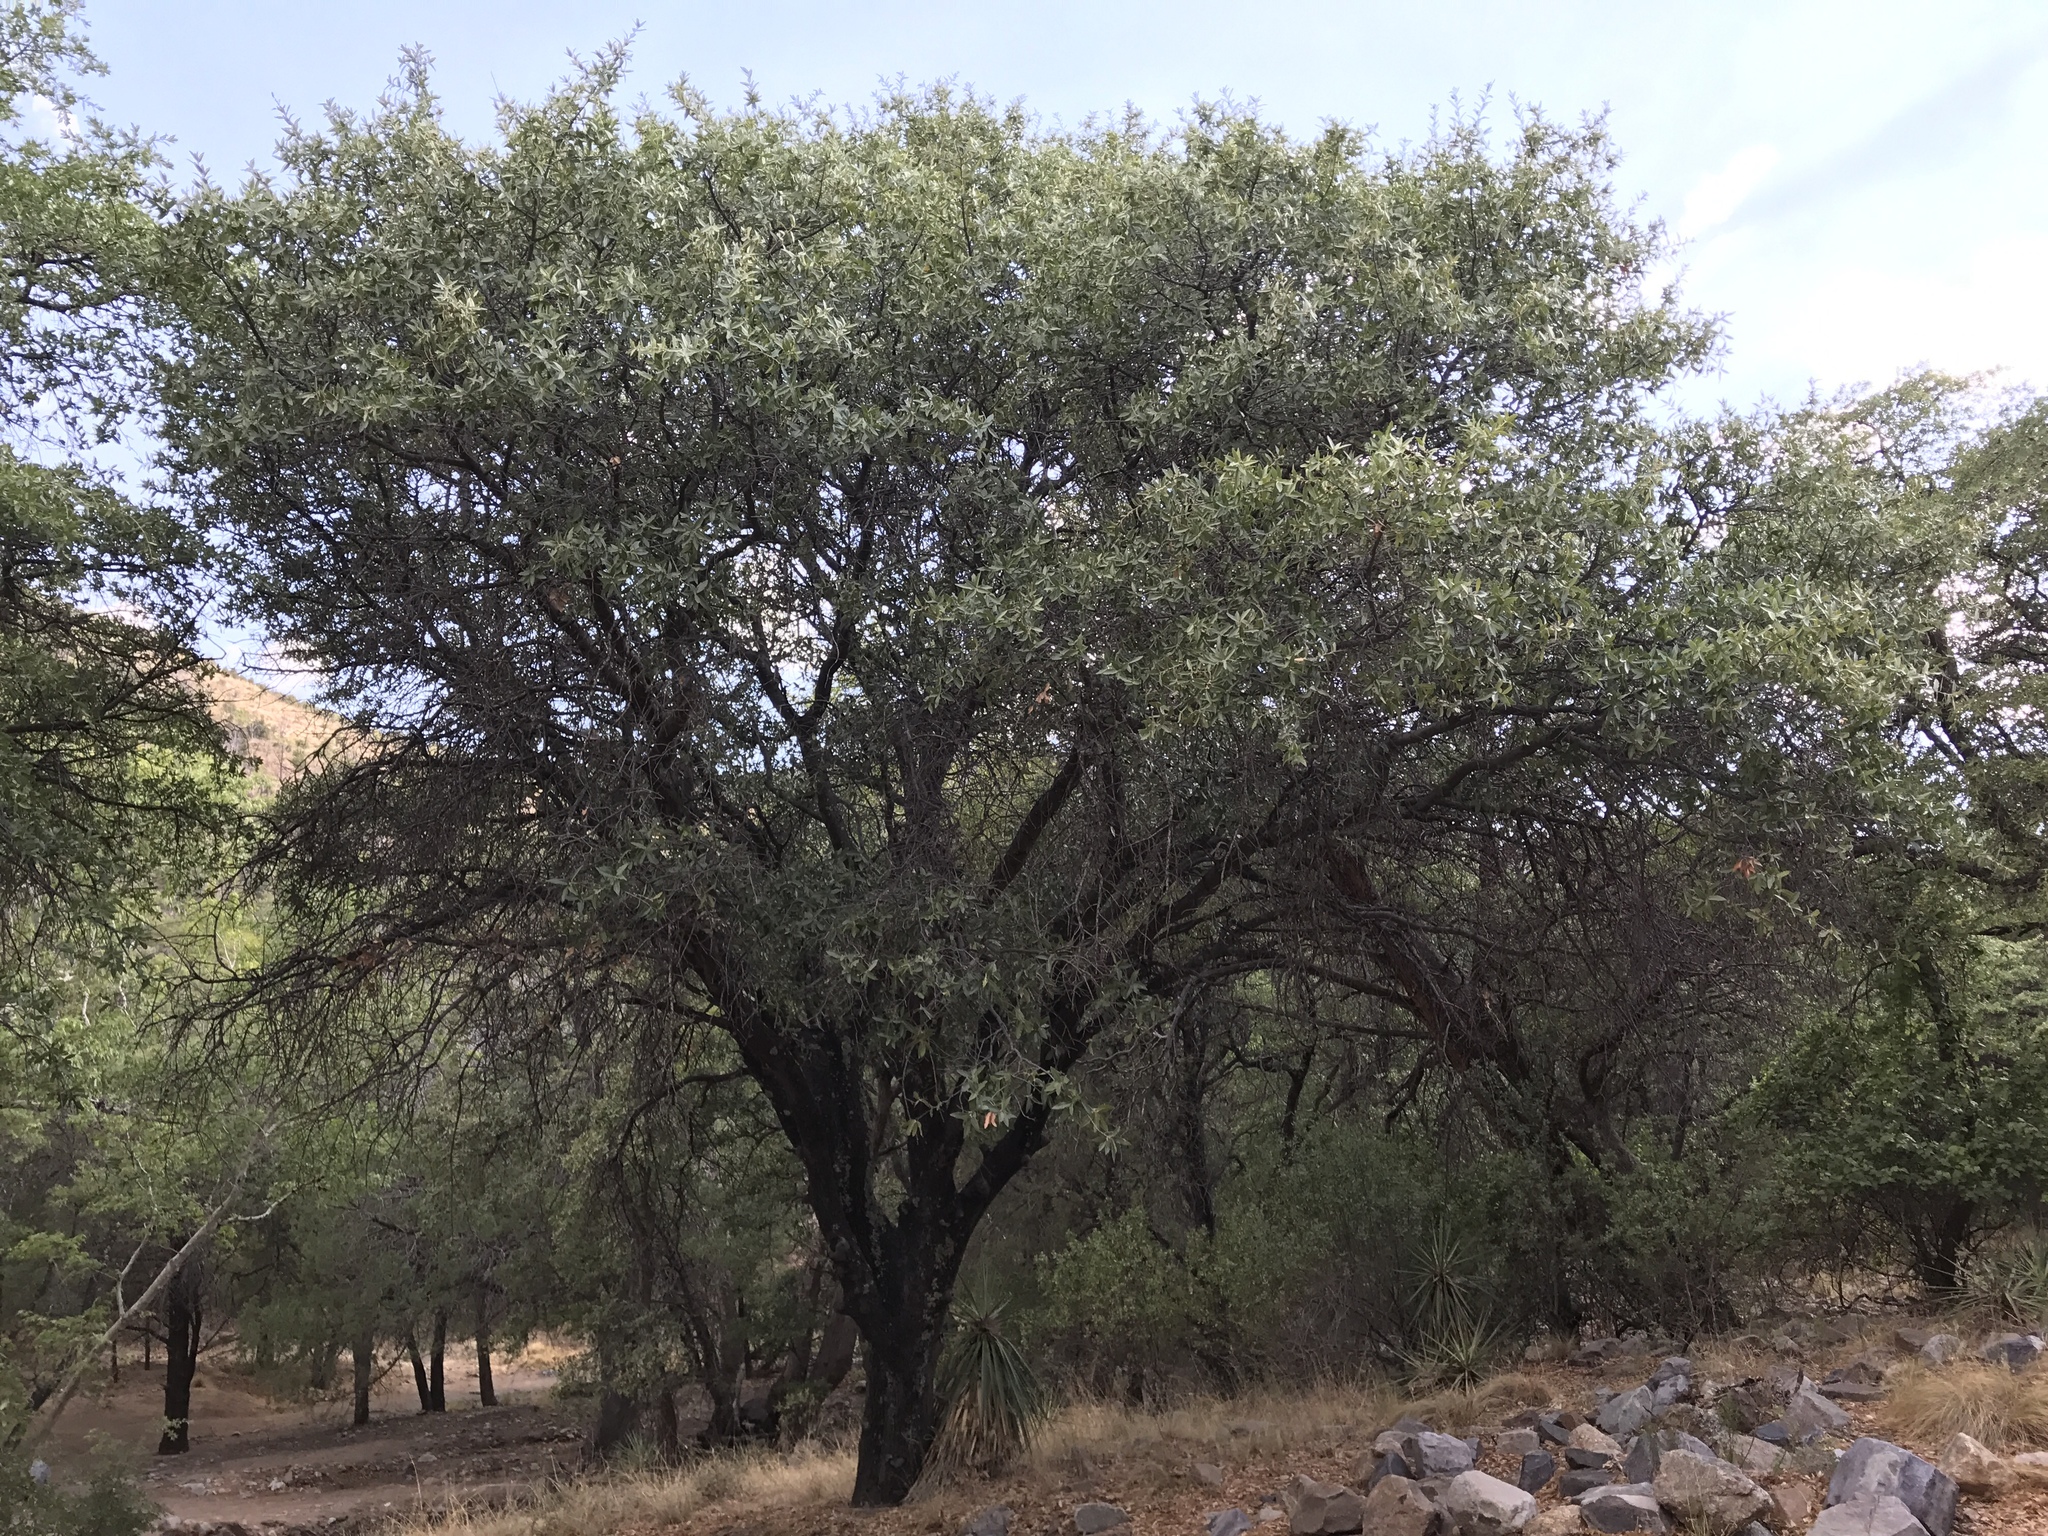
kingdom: Plantae
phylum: Tracheophyta
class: Magnoliopsida
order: Fagales
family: Fagaceae
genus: Quercus
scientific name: Quercus emoryi
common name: Emory oak
